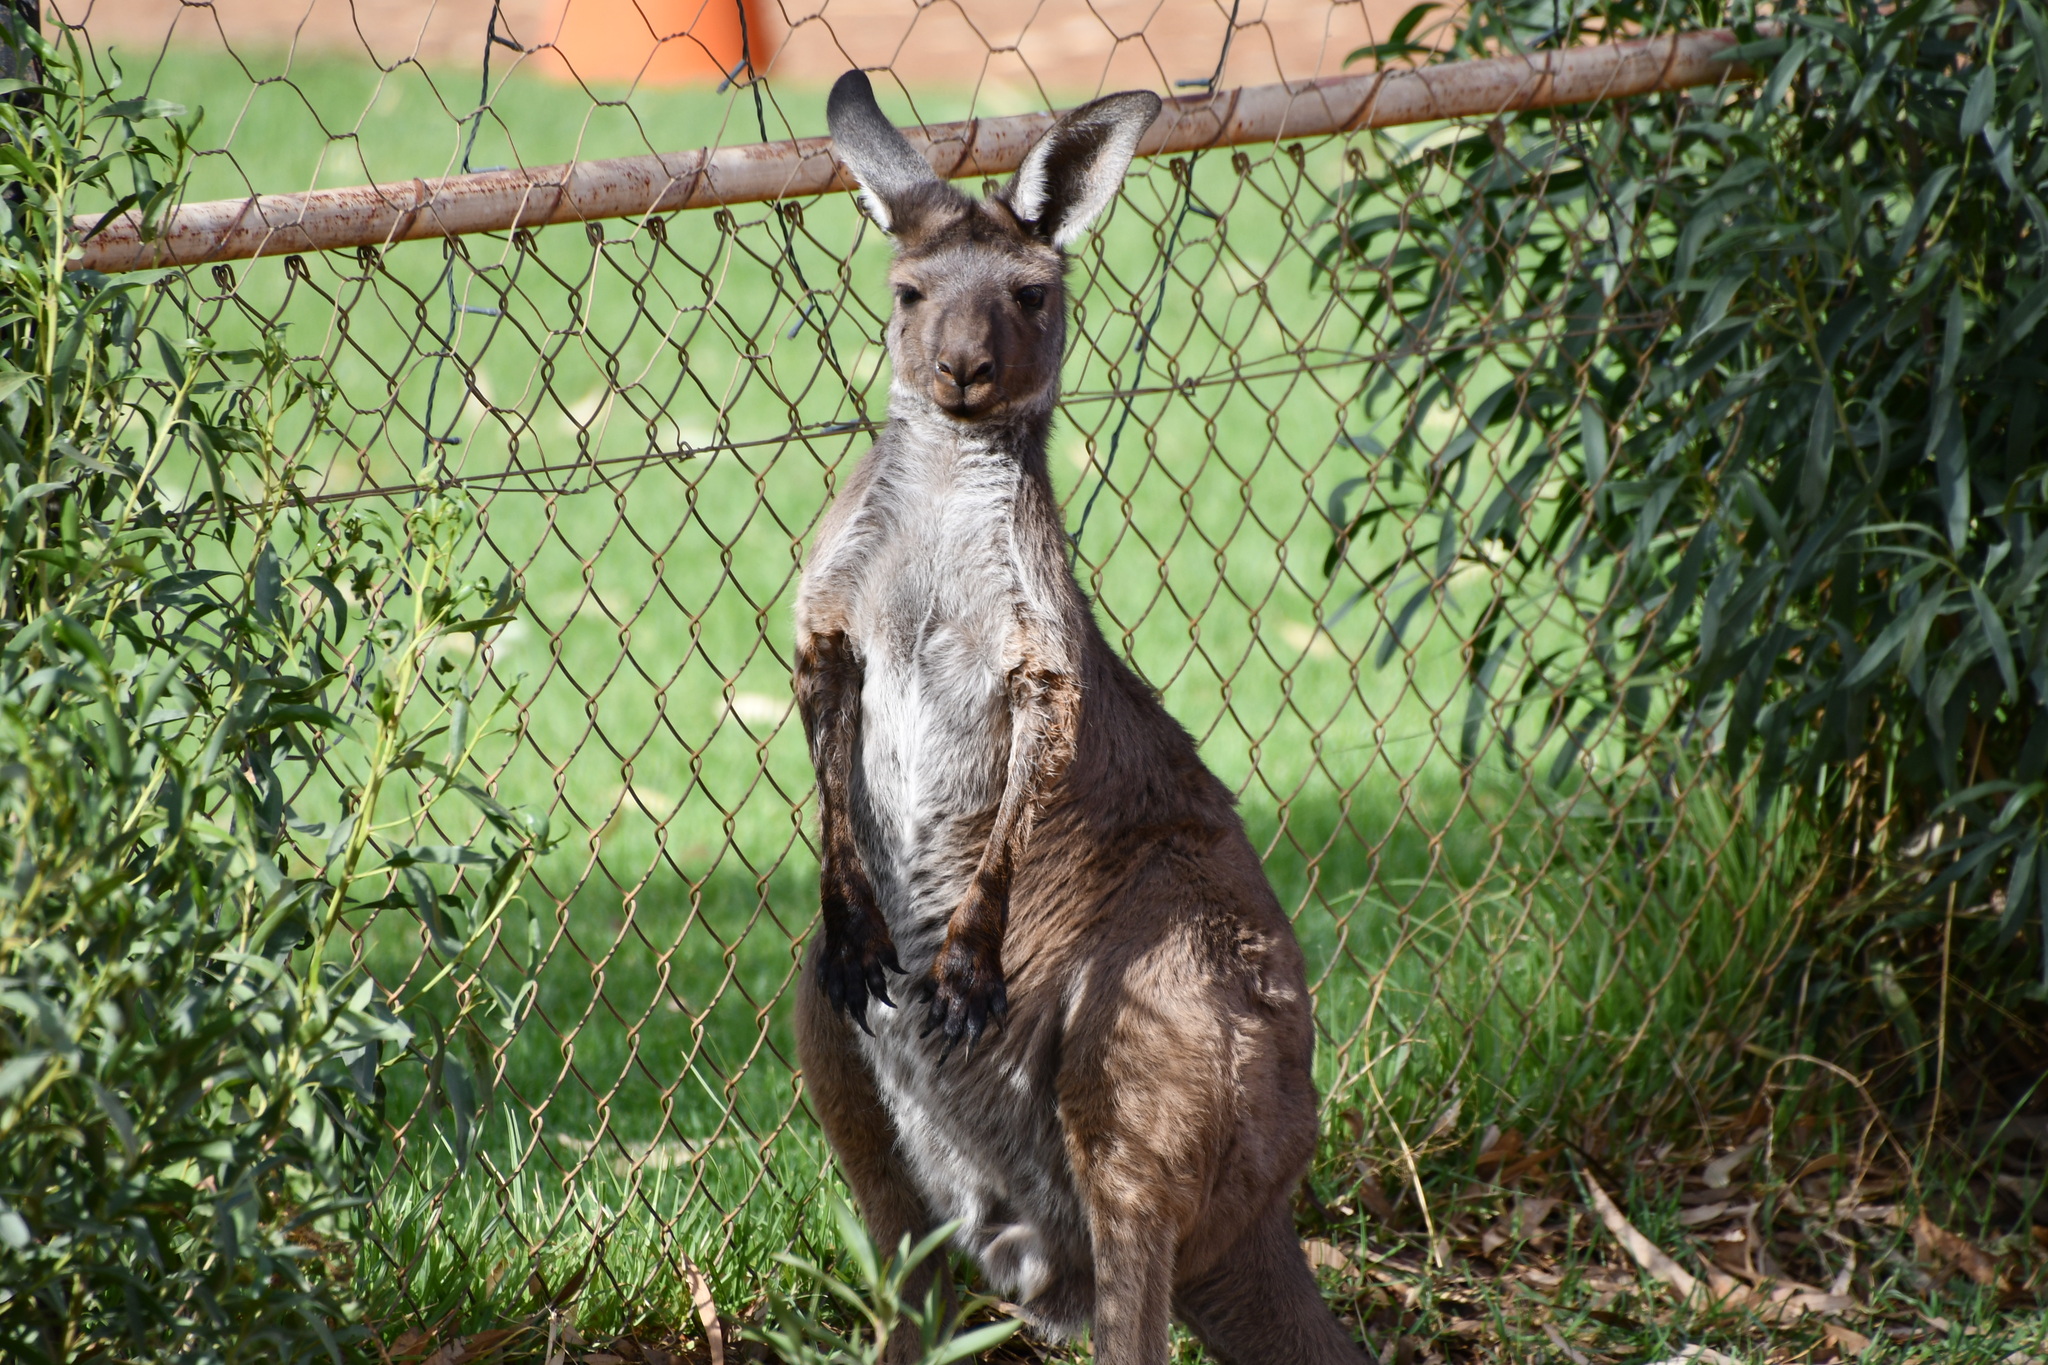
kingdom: Animalia
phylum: Chordata
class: Mammalia
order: Diprotodontia
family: Macropodidae
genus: Macropus
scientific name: Macropus fuliginosus
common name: Western grey kangaroo
